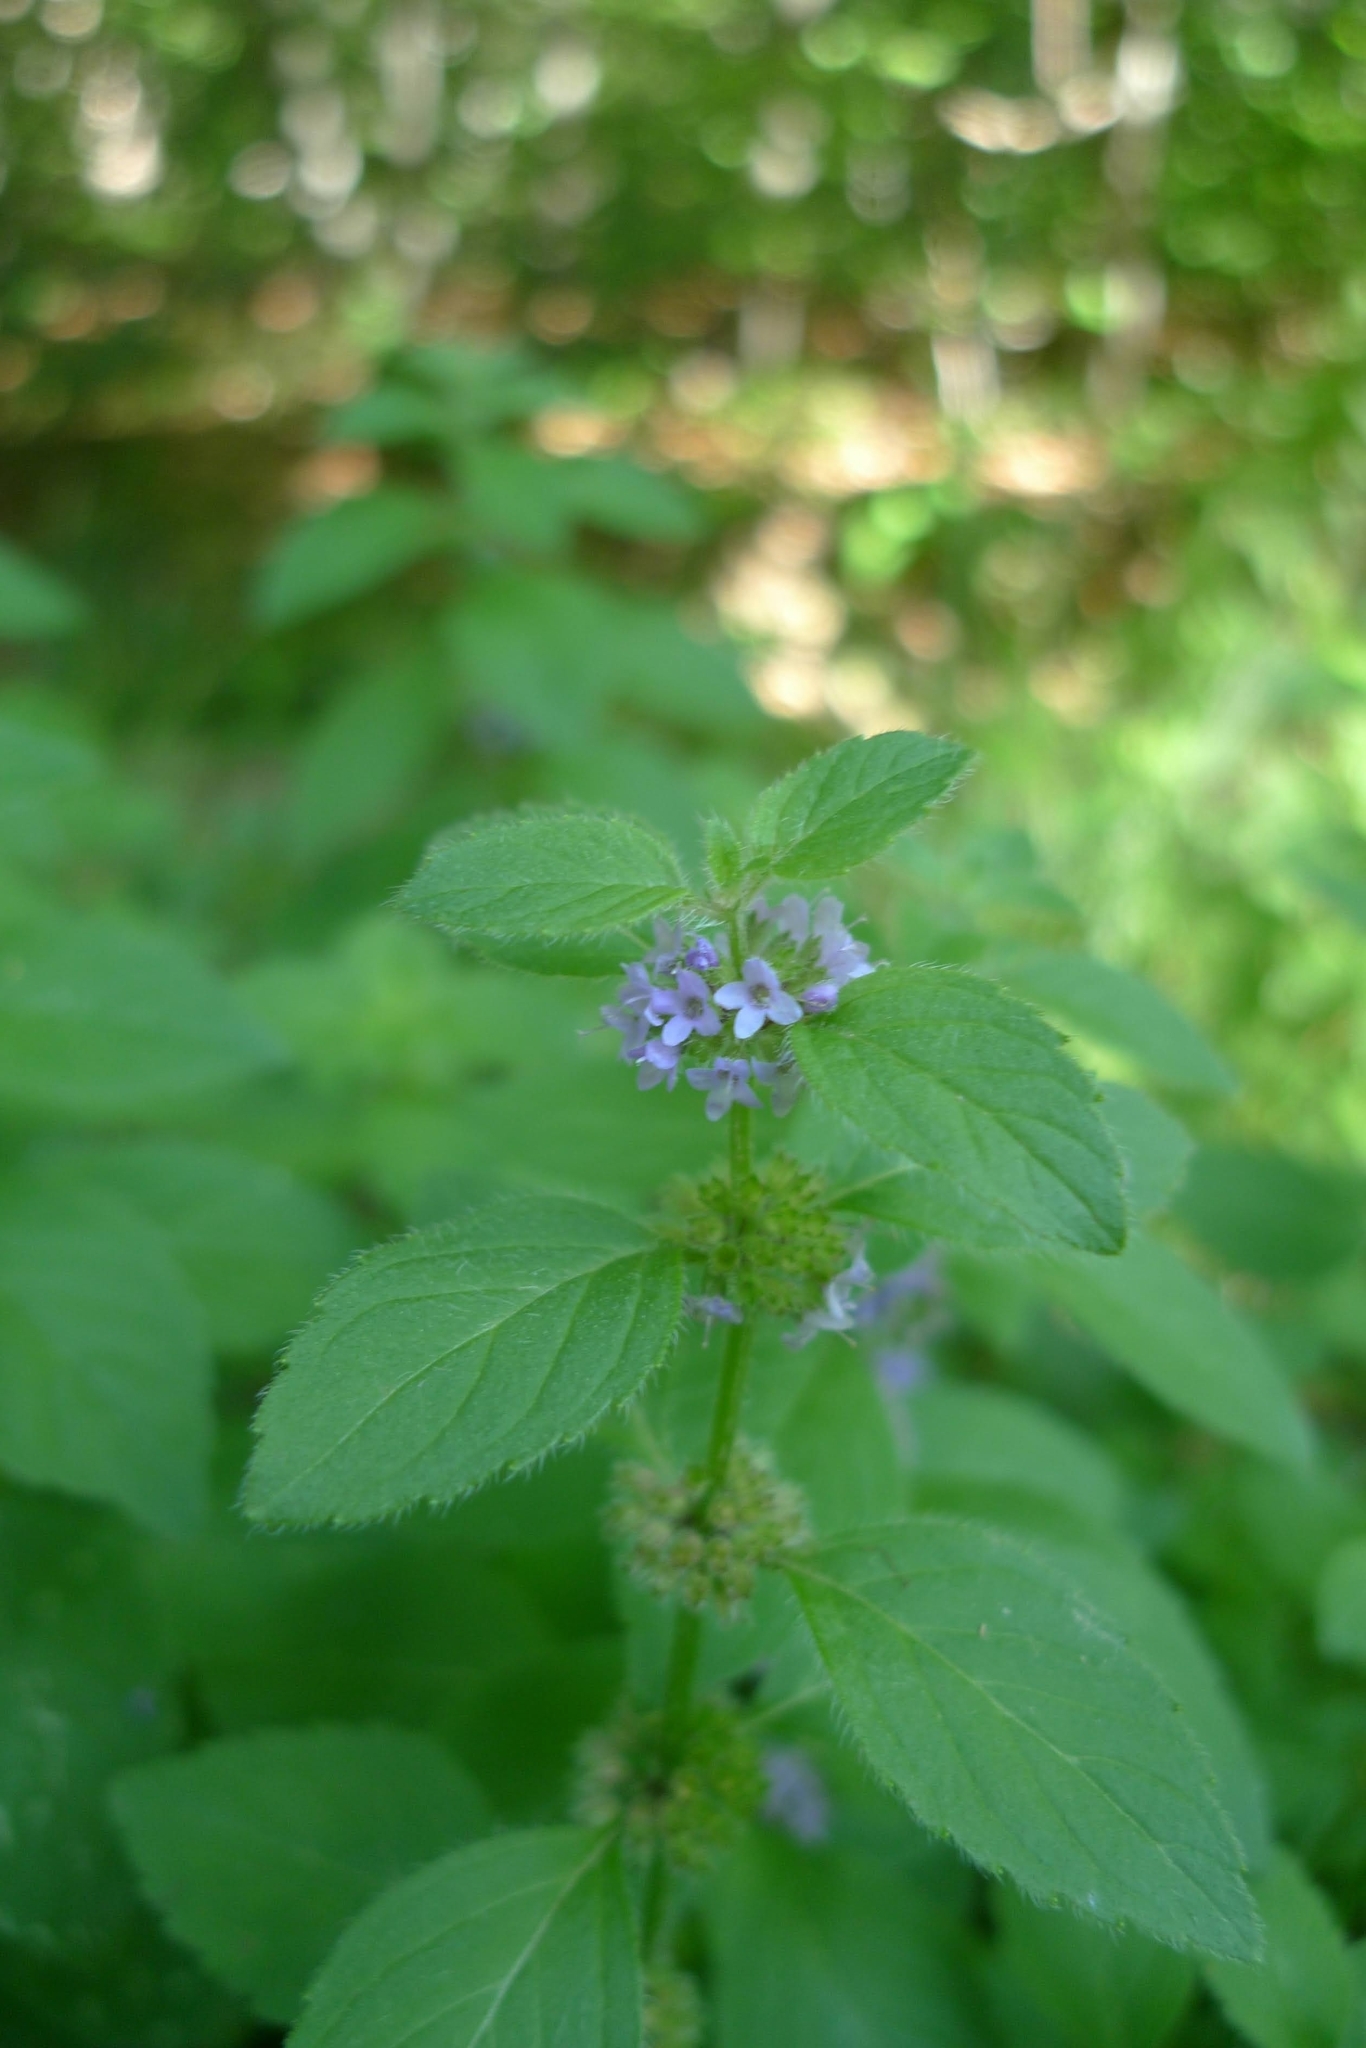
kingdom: Plantae
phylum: Tracheophyta
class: Magnoliopsida
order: Lamiales
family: Lamiaceae
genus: Mentha
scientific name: Mentha arvensis
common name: Corn mint
